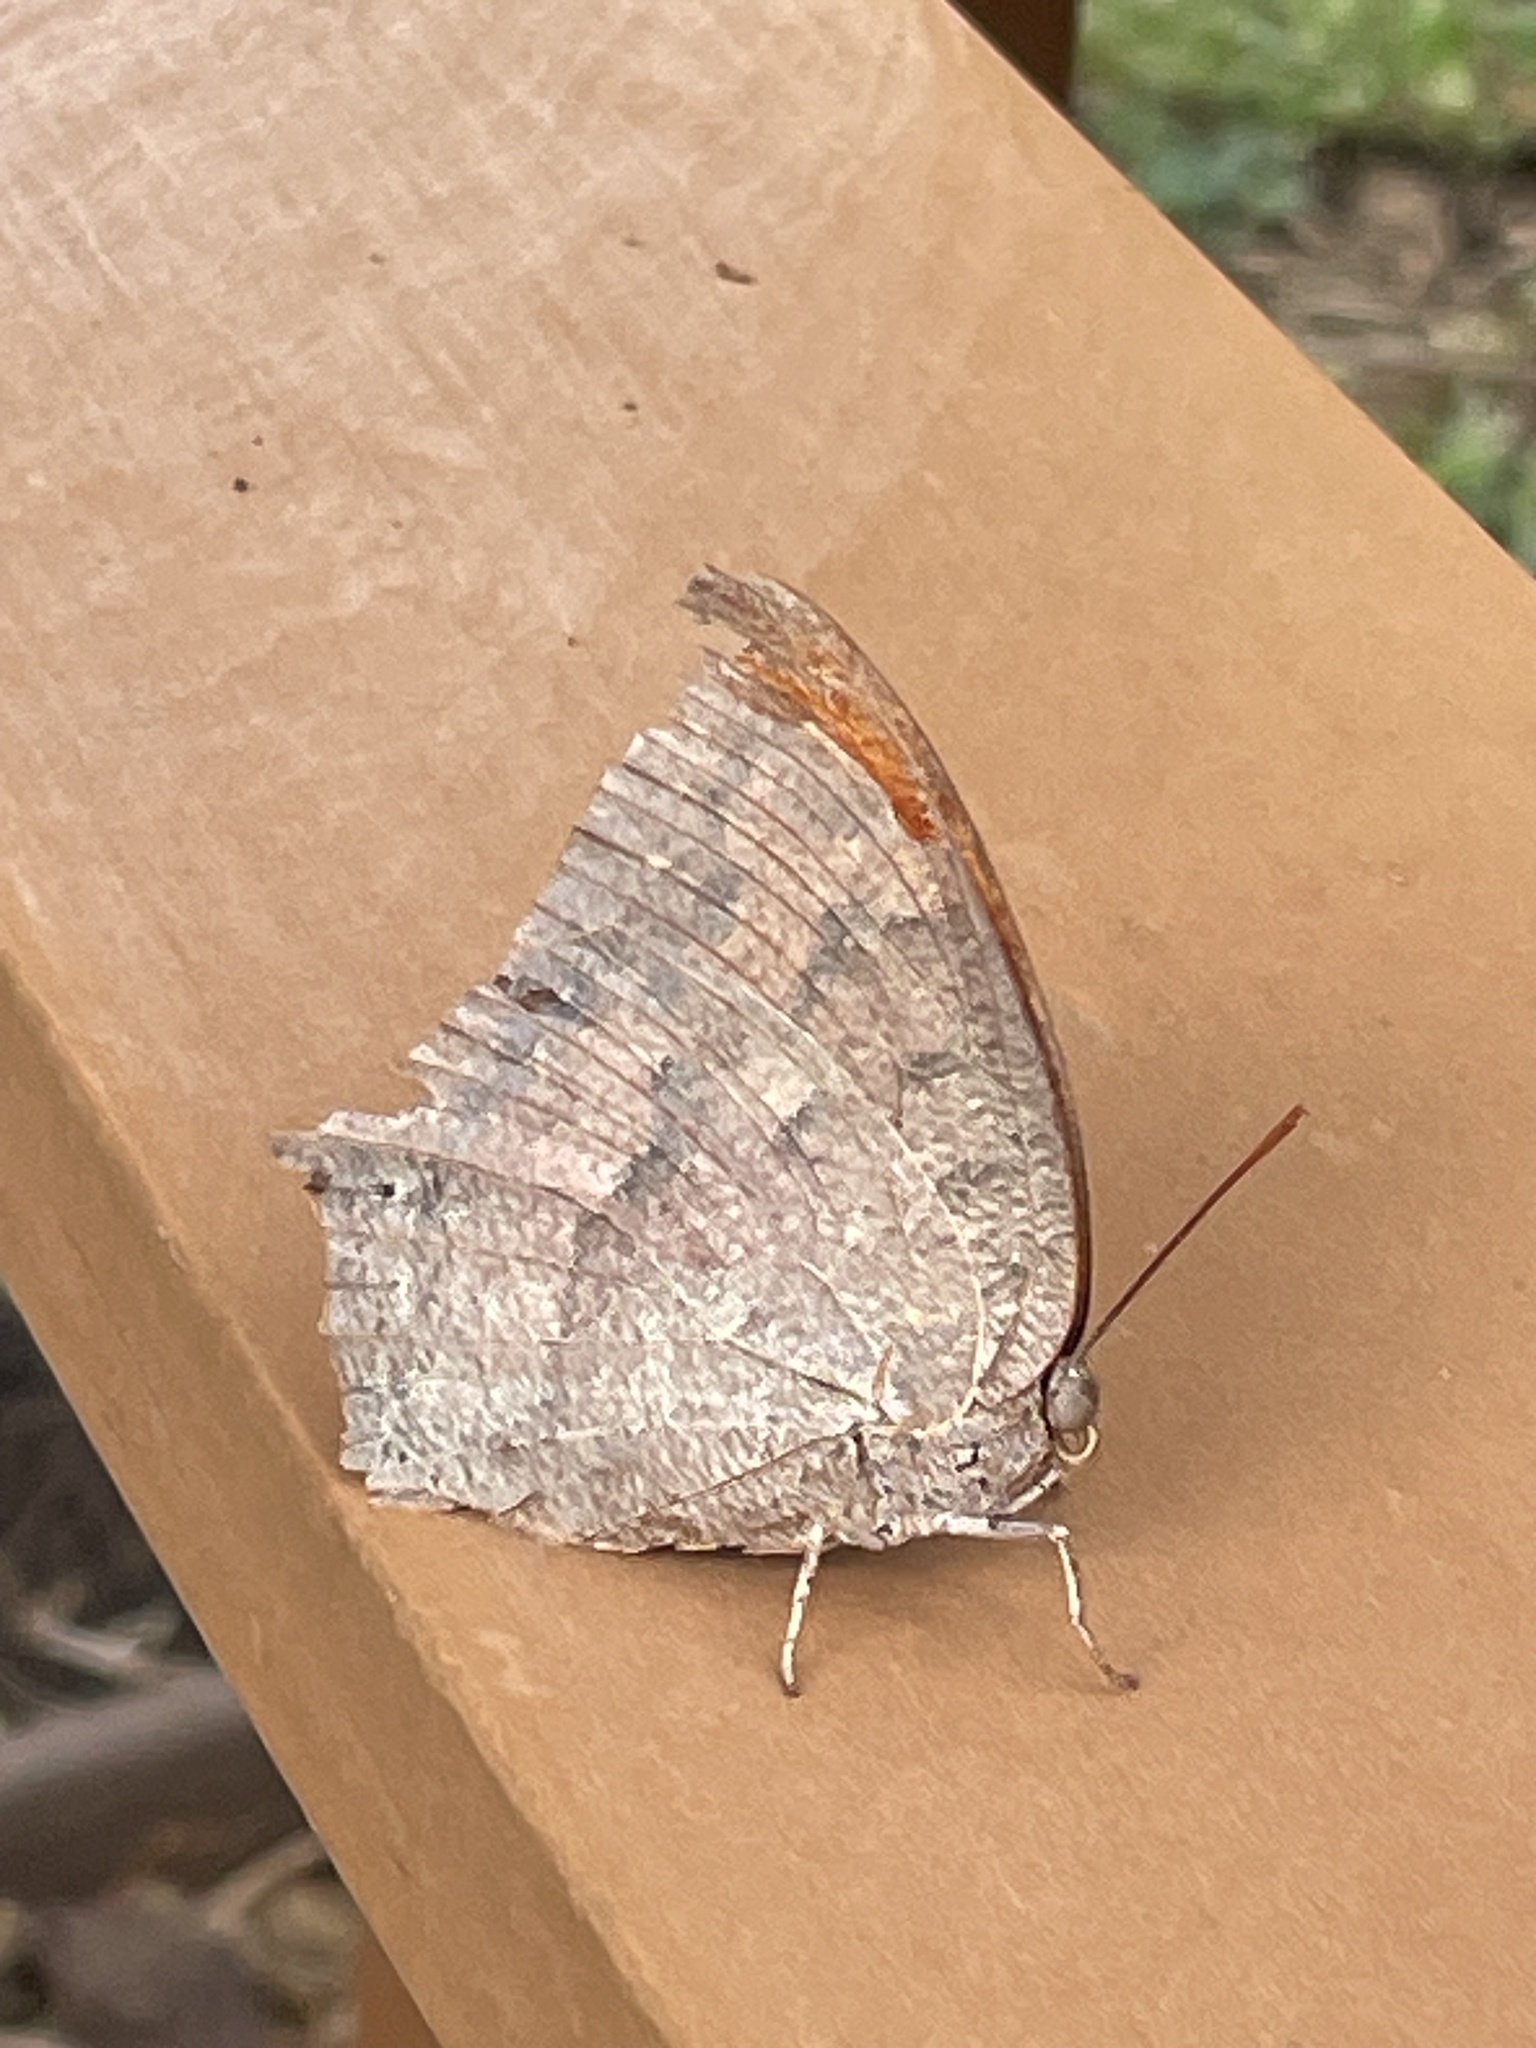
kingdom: Animalia
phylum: Arthropoda
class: Insecta
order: Lepidoptera
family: Nymphalidae
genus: Anaea
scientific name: Anaea andria
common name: Goatweed leafwing
